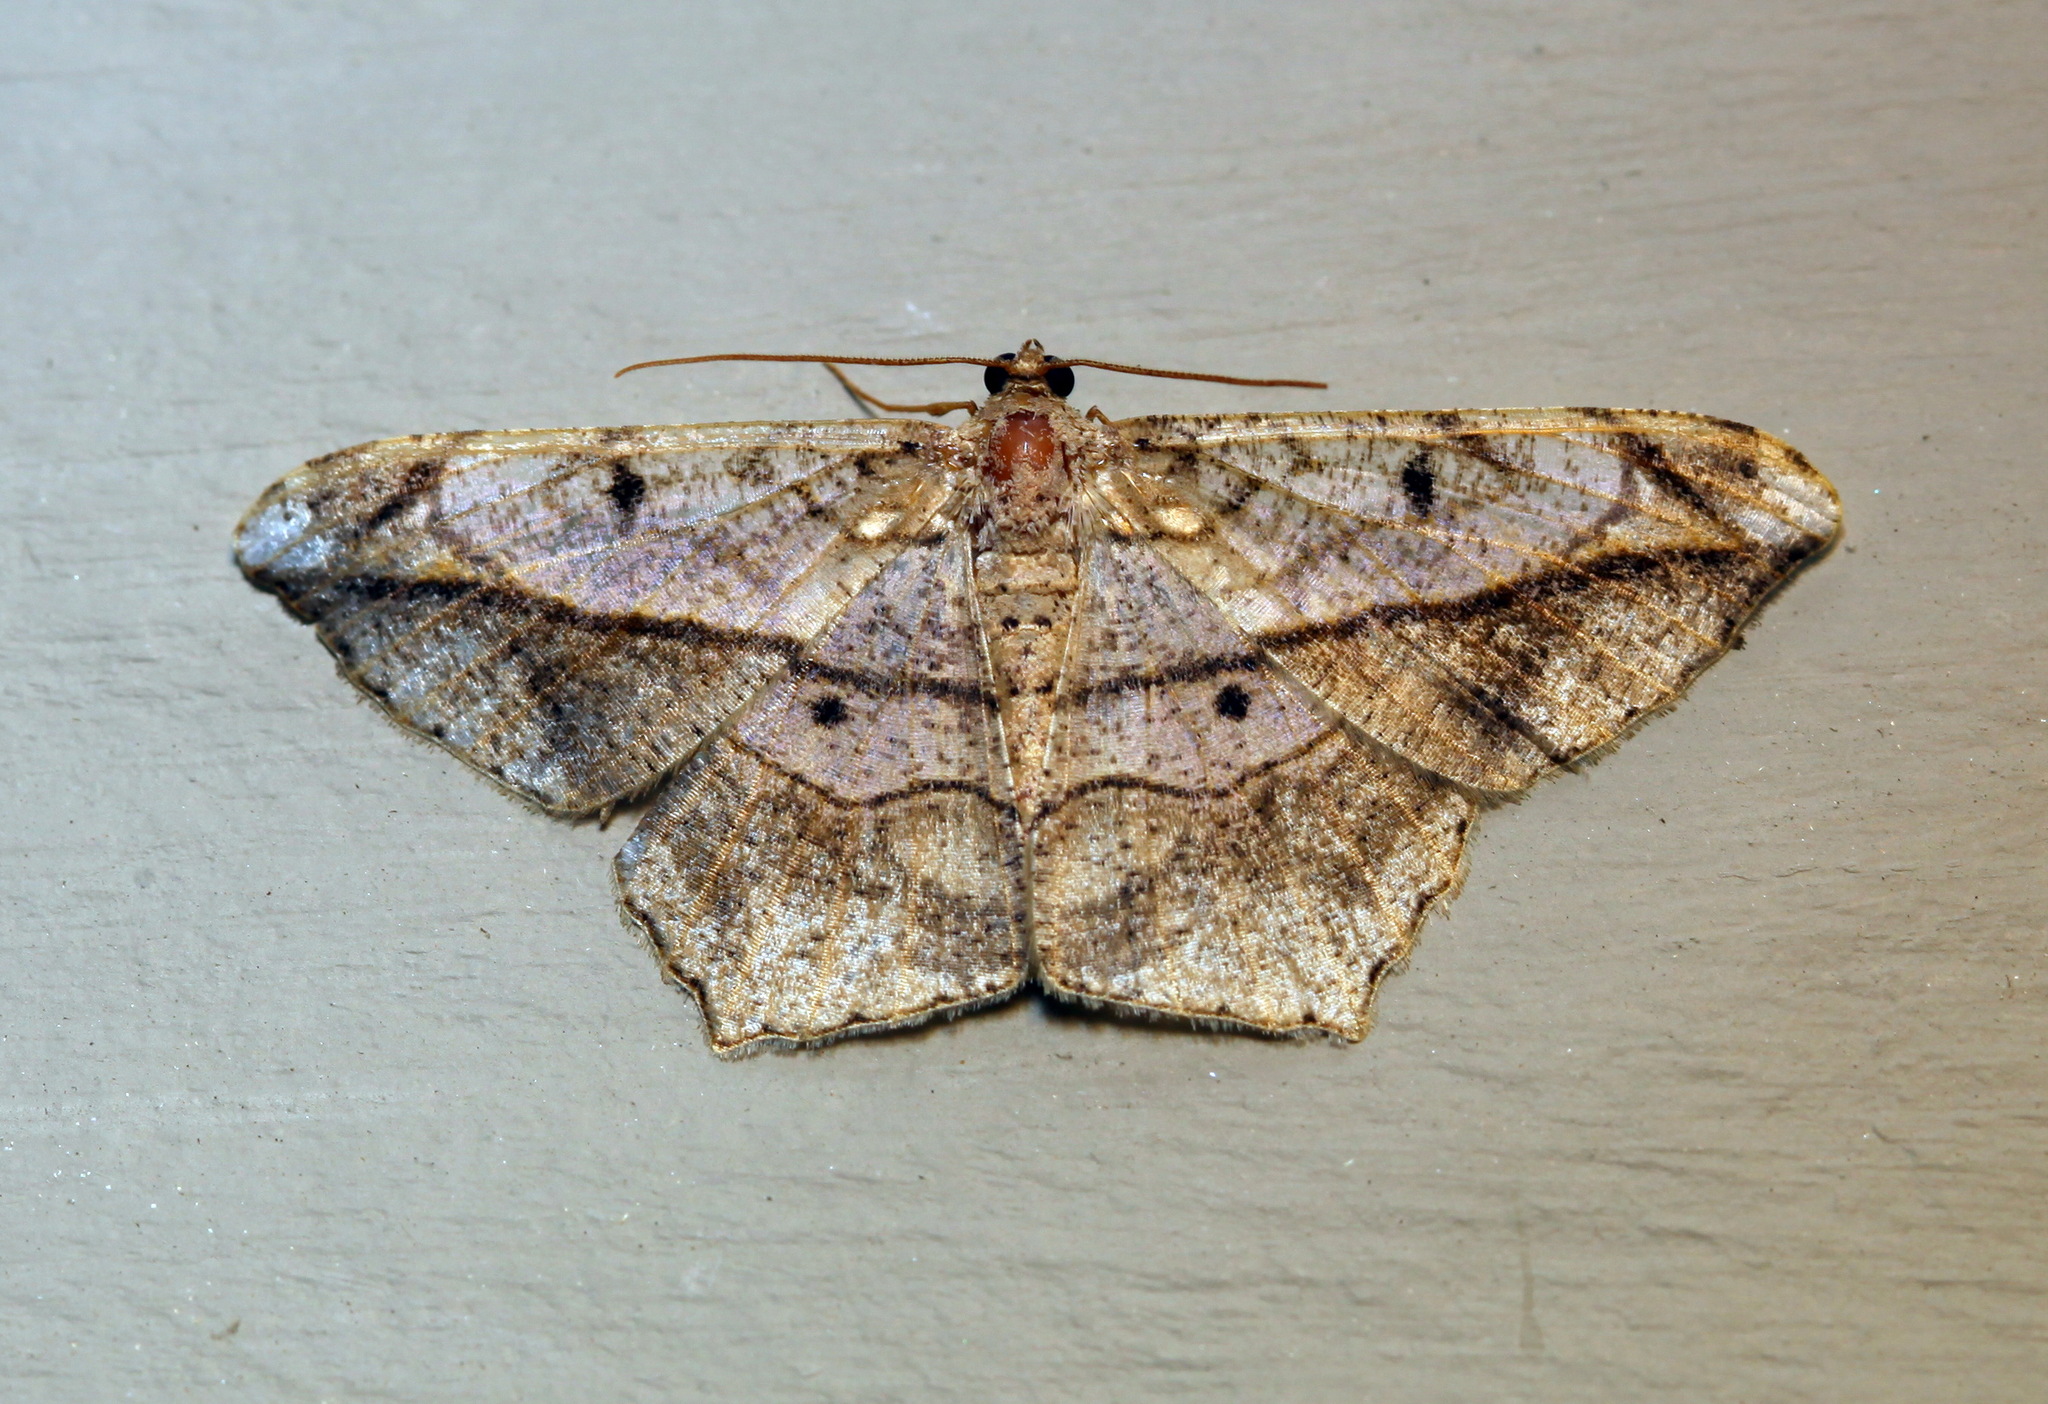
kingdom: Animalia
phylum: Arthropoda
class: Insecta
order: Lepidoptera
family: Geometridae
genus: Chiasmia
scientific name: Chiasmia simplicilinea
